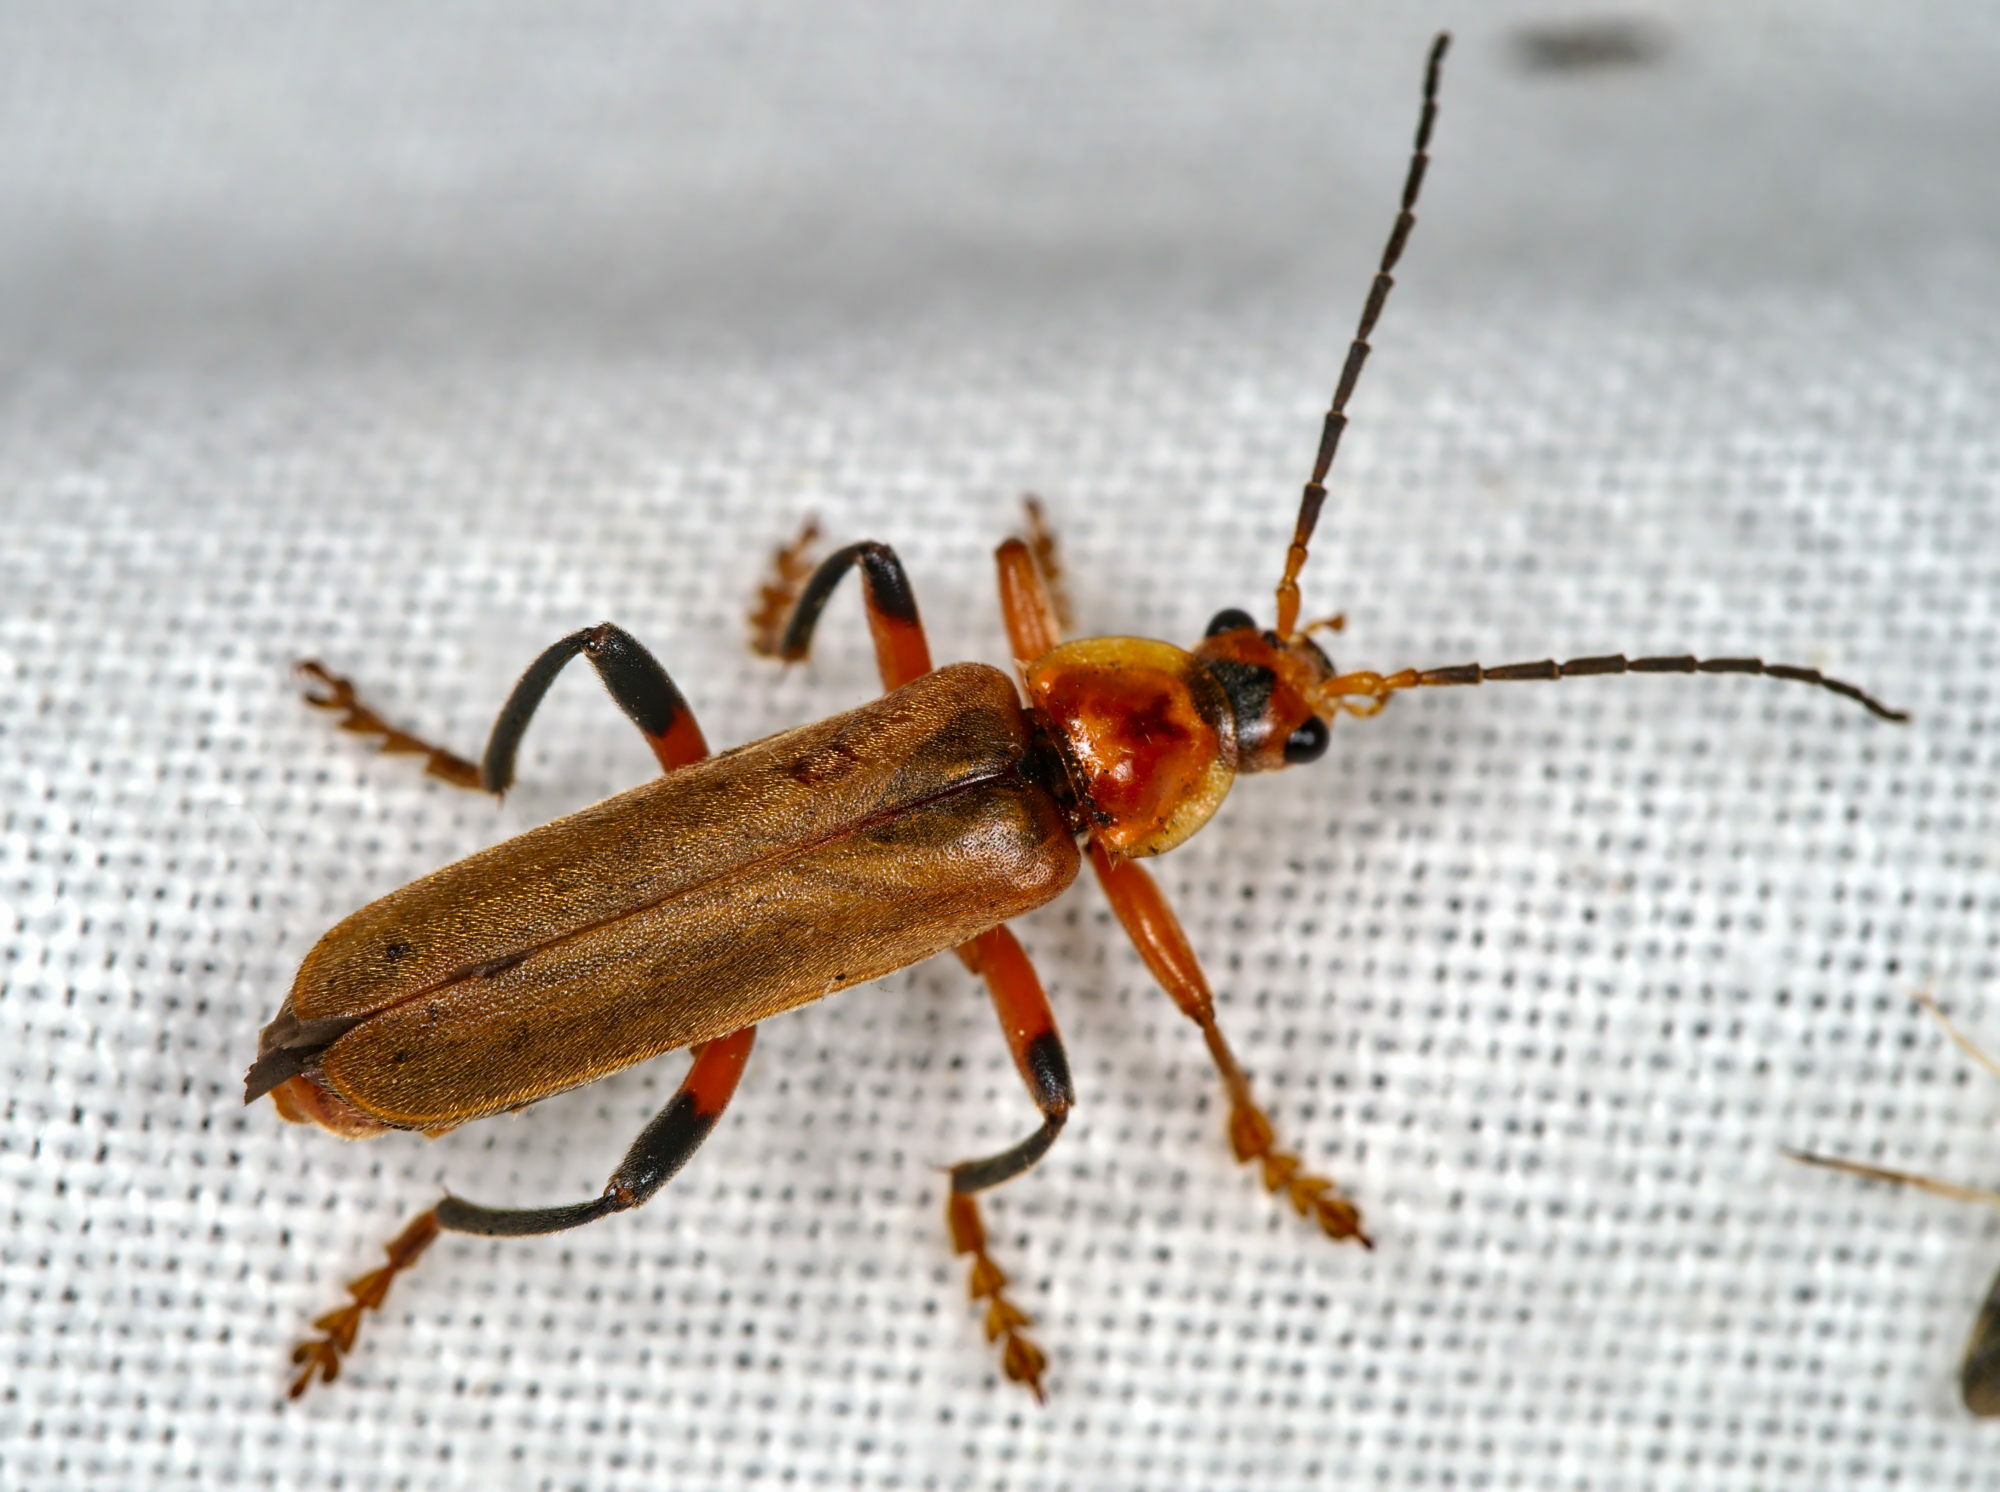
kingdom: Animalia
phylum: Arthropoda
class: Insecta
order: Coleoptera
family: Cantharidae
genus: Cantharis
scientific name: Cantharis livida
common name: Livid soldier beetle
